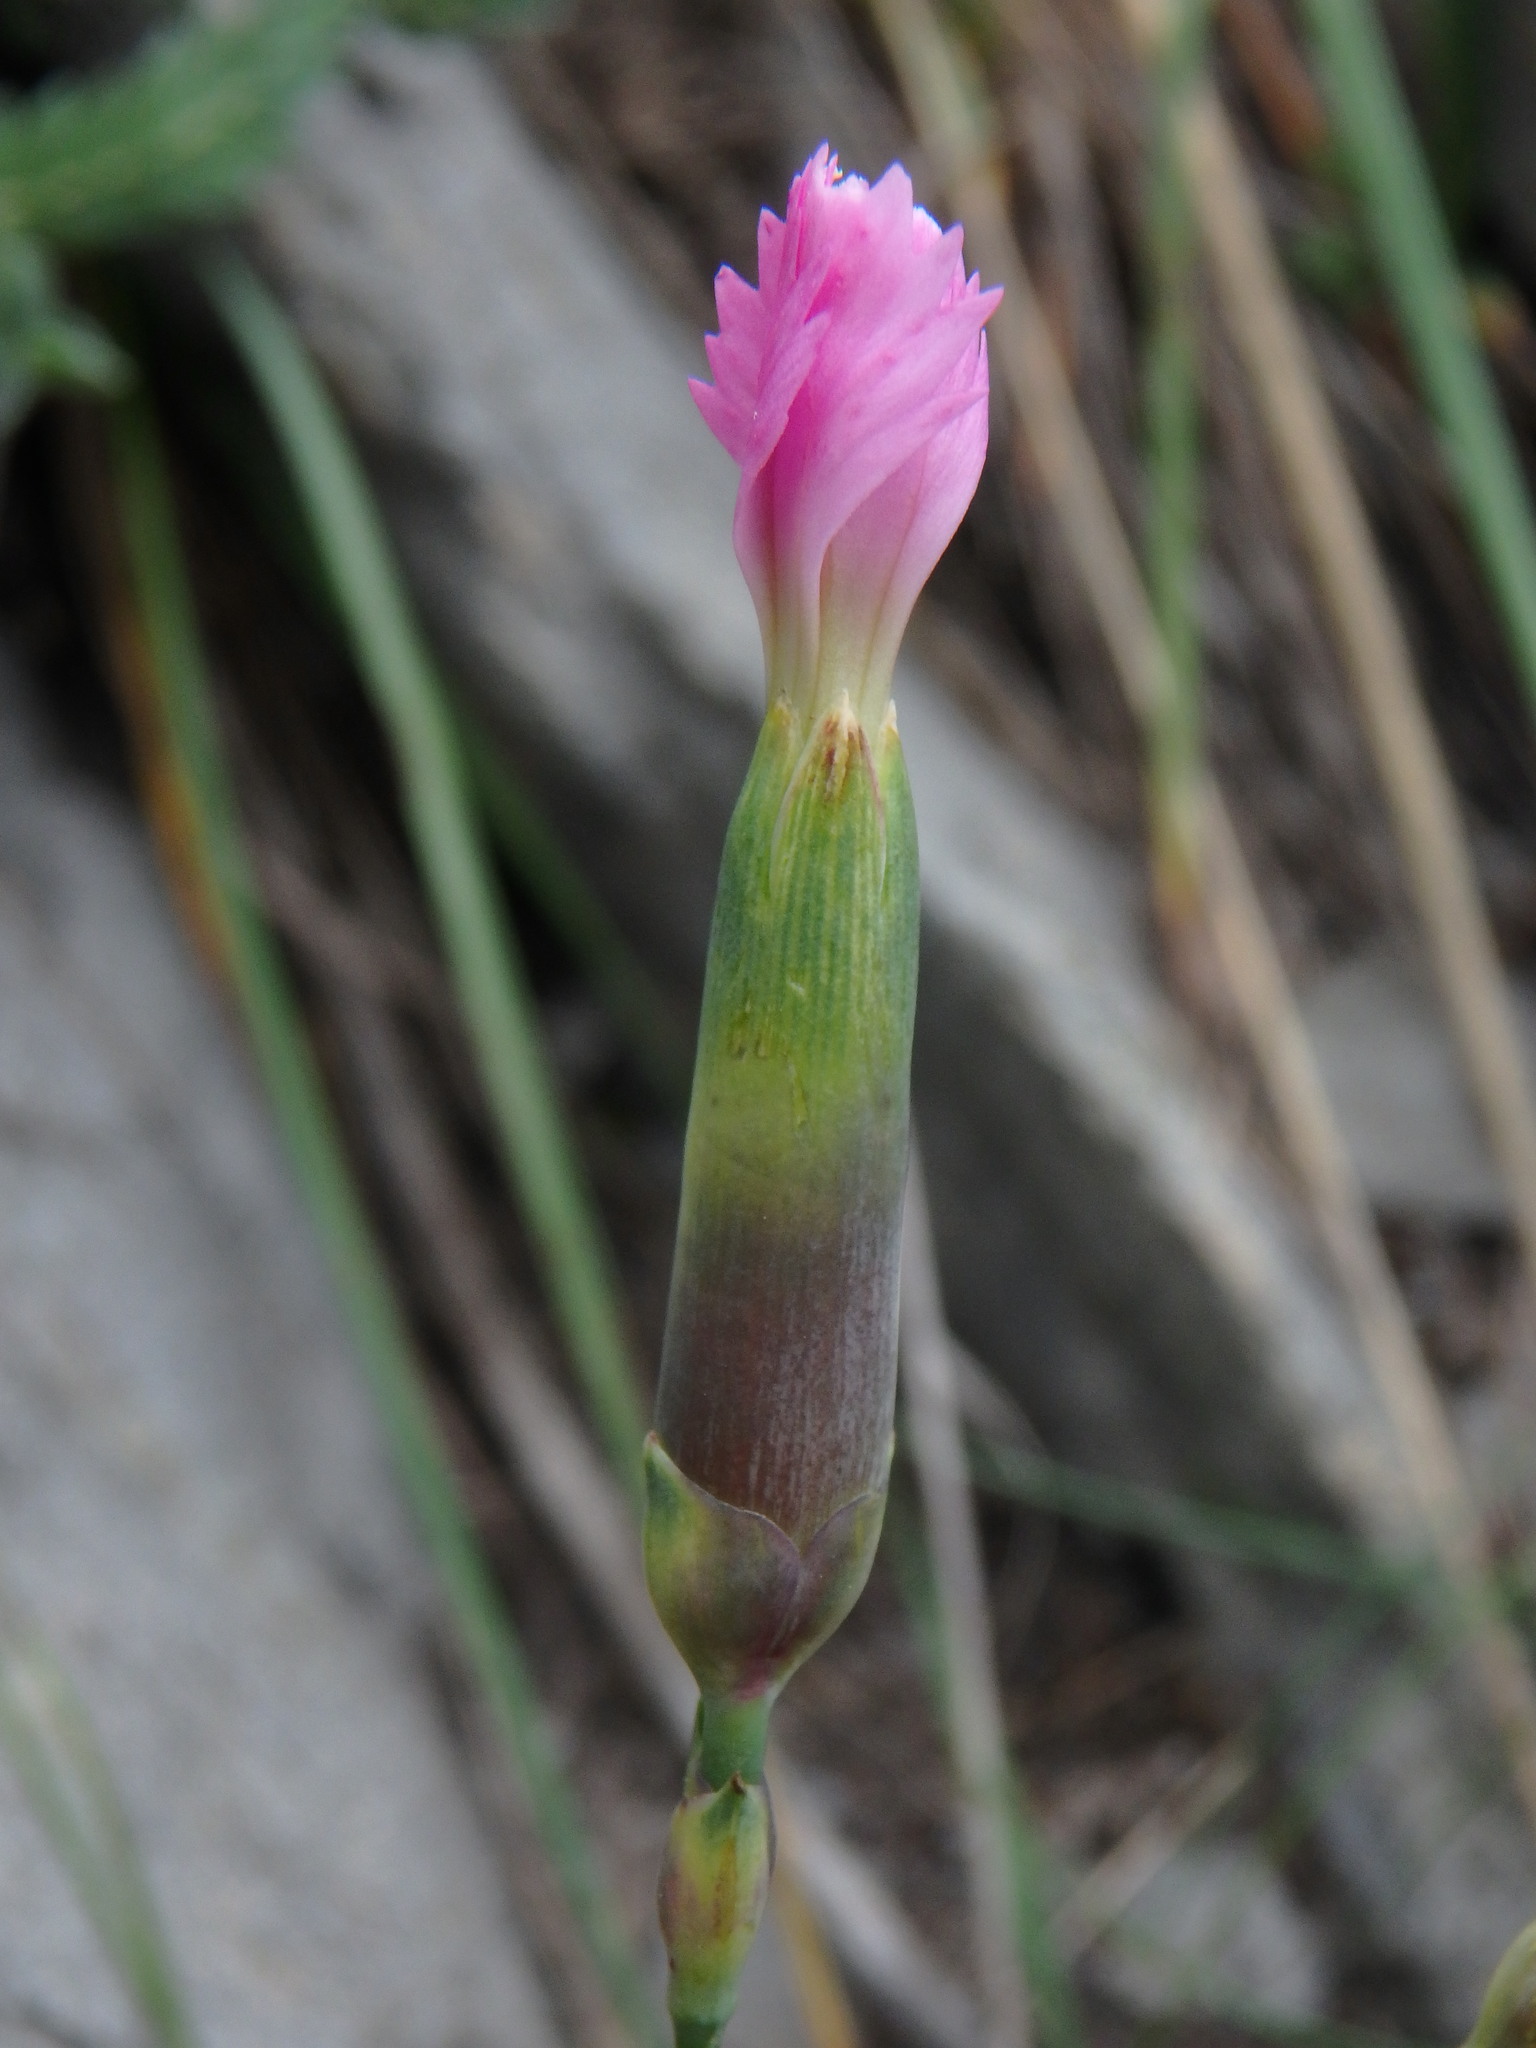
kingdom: Plantae
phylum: Tracheophyta
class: Magnoliopsida
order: Caryophyllales
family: Caryophyllaceae
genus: Dianthus
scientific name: Dianthus sylvestris
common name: Wood pink
